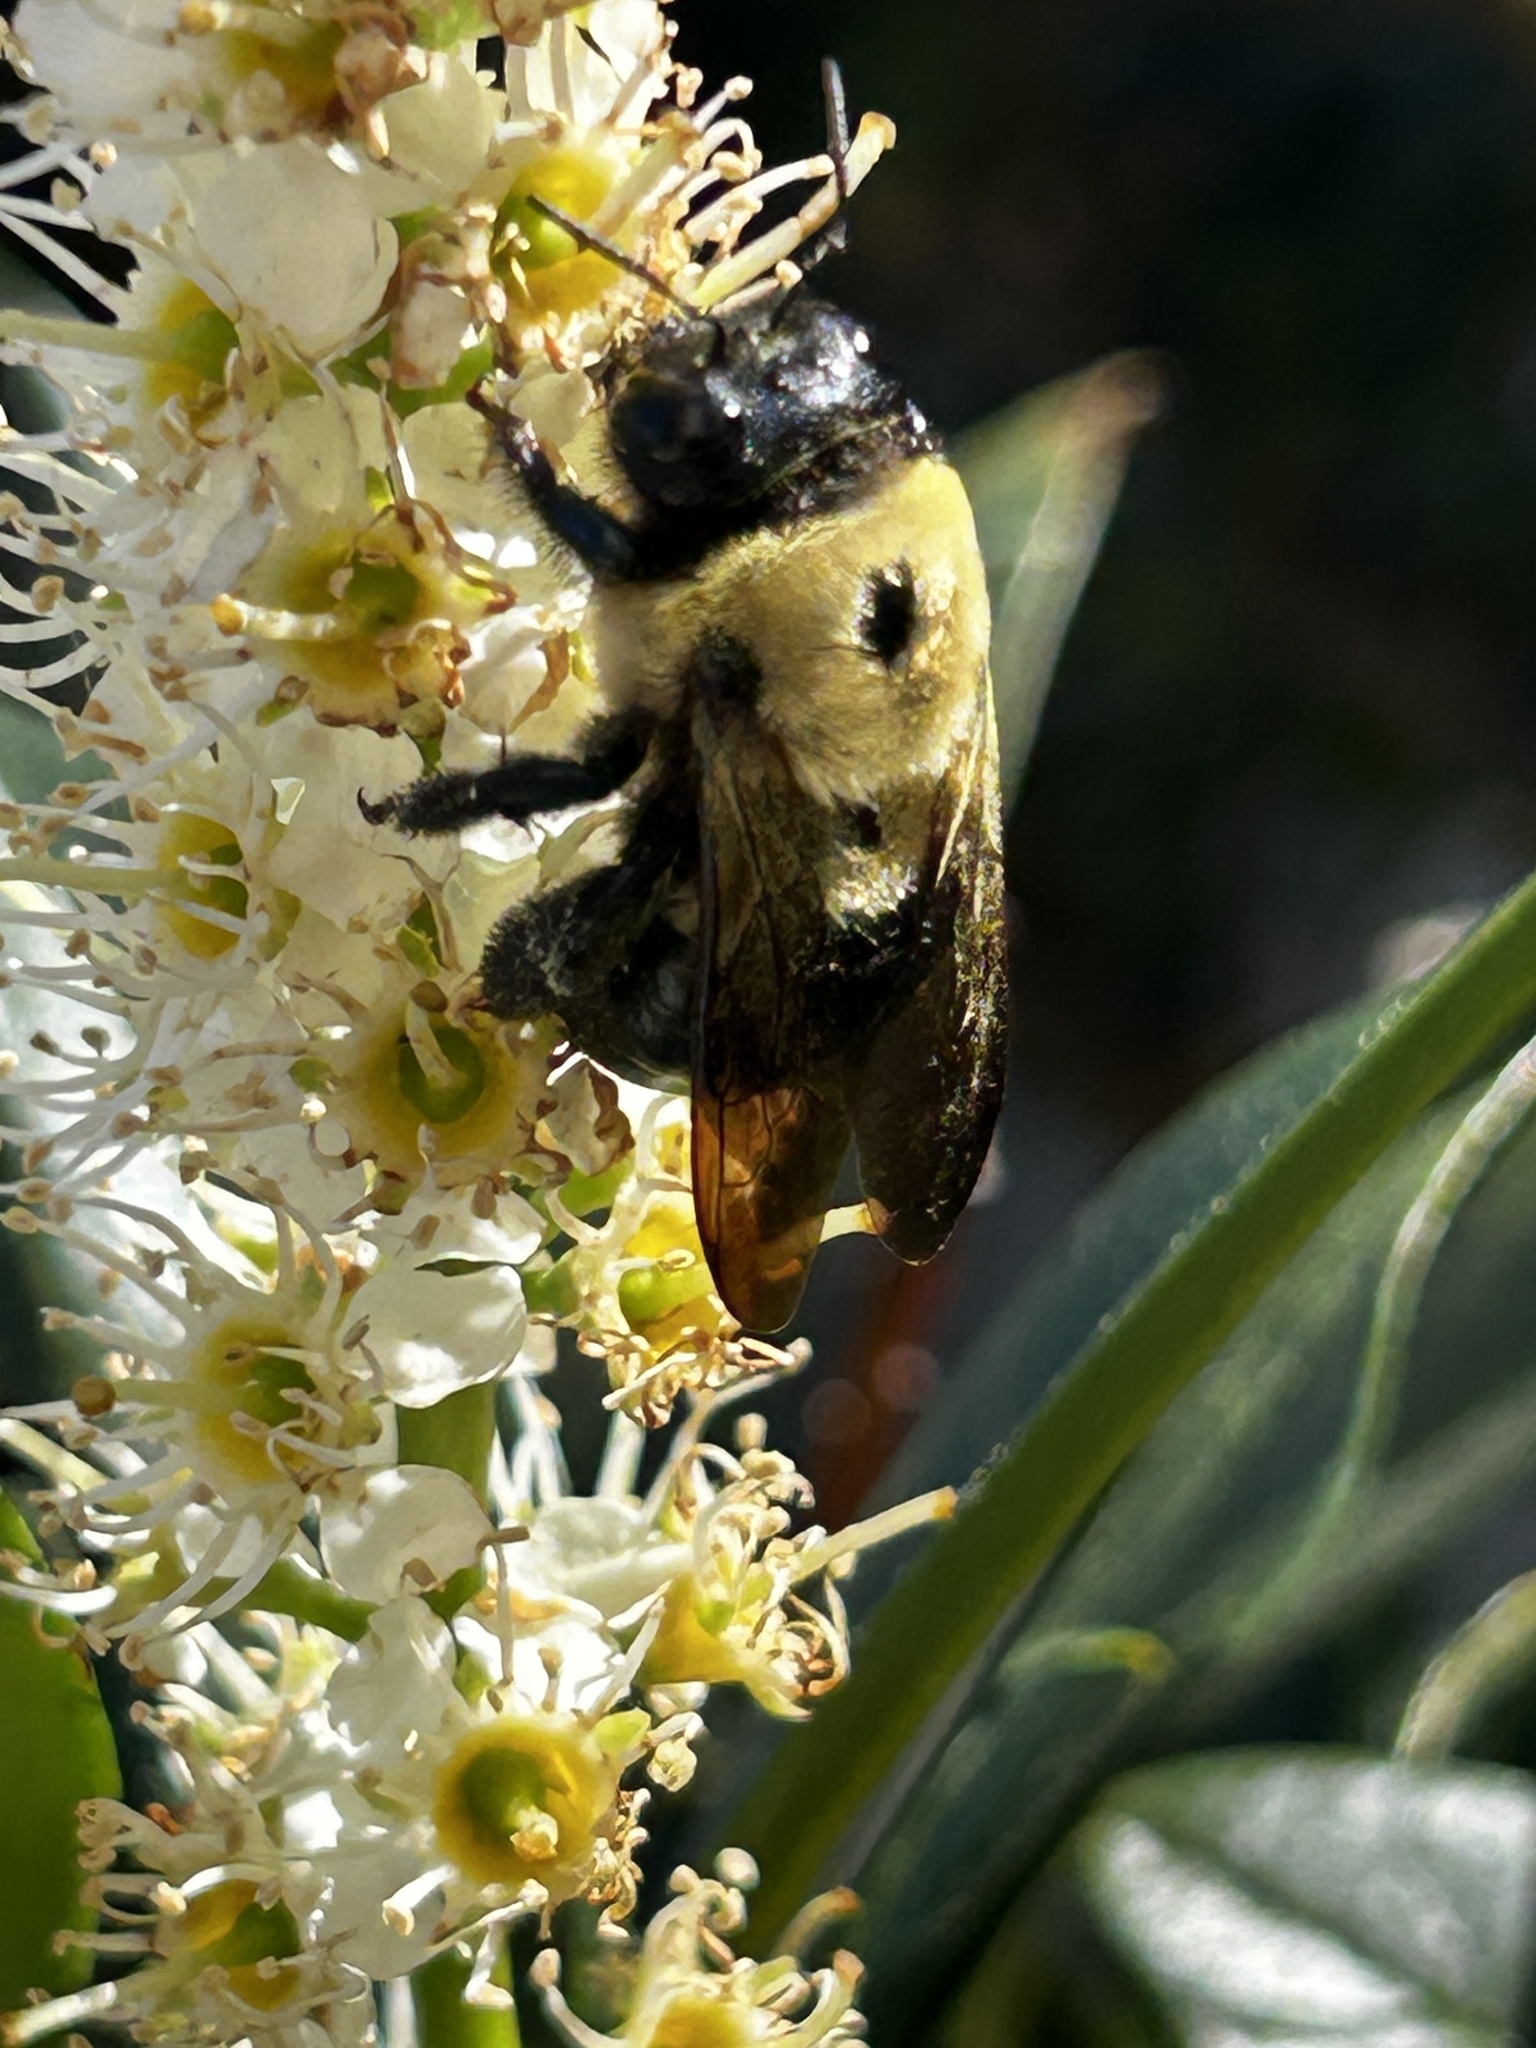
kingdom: Animalia
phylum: Arthropoda
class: Insecta
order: Hymenoptera
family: Apidae
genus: Xylocopa
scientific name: Xylocopa virginica
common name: Carpenter bee
